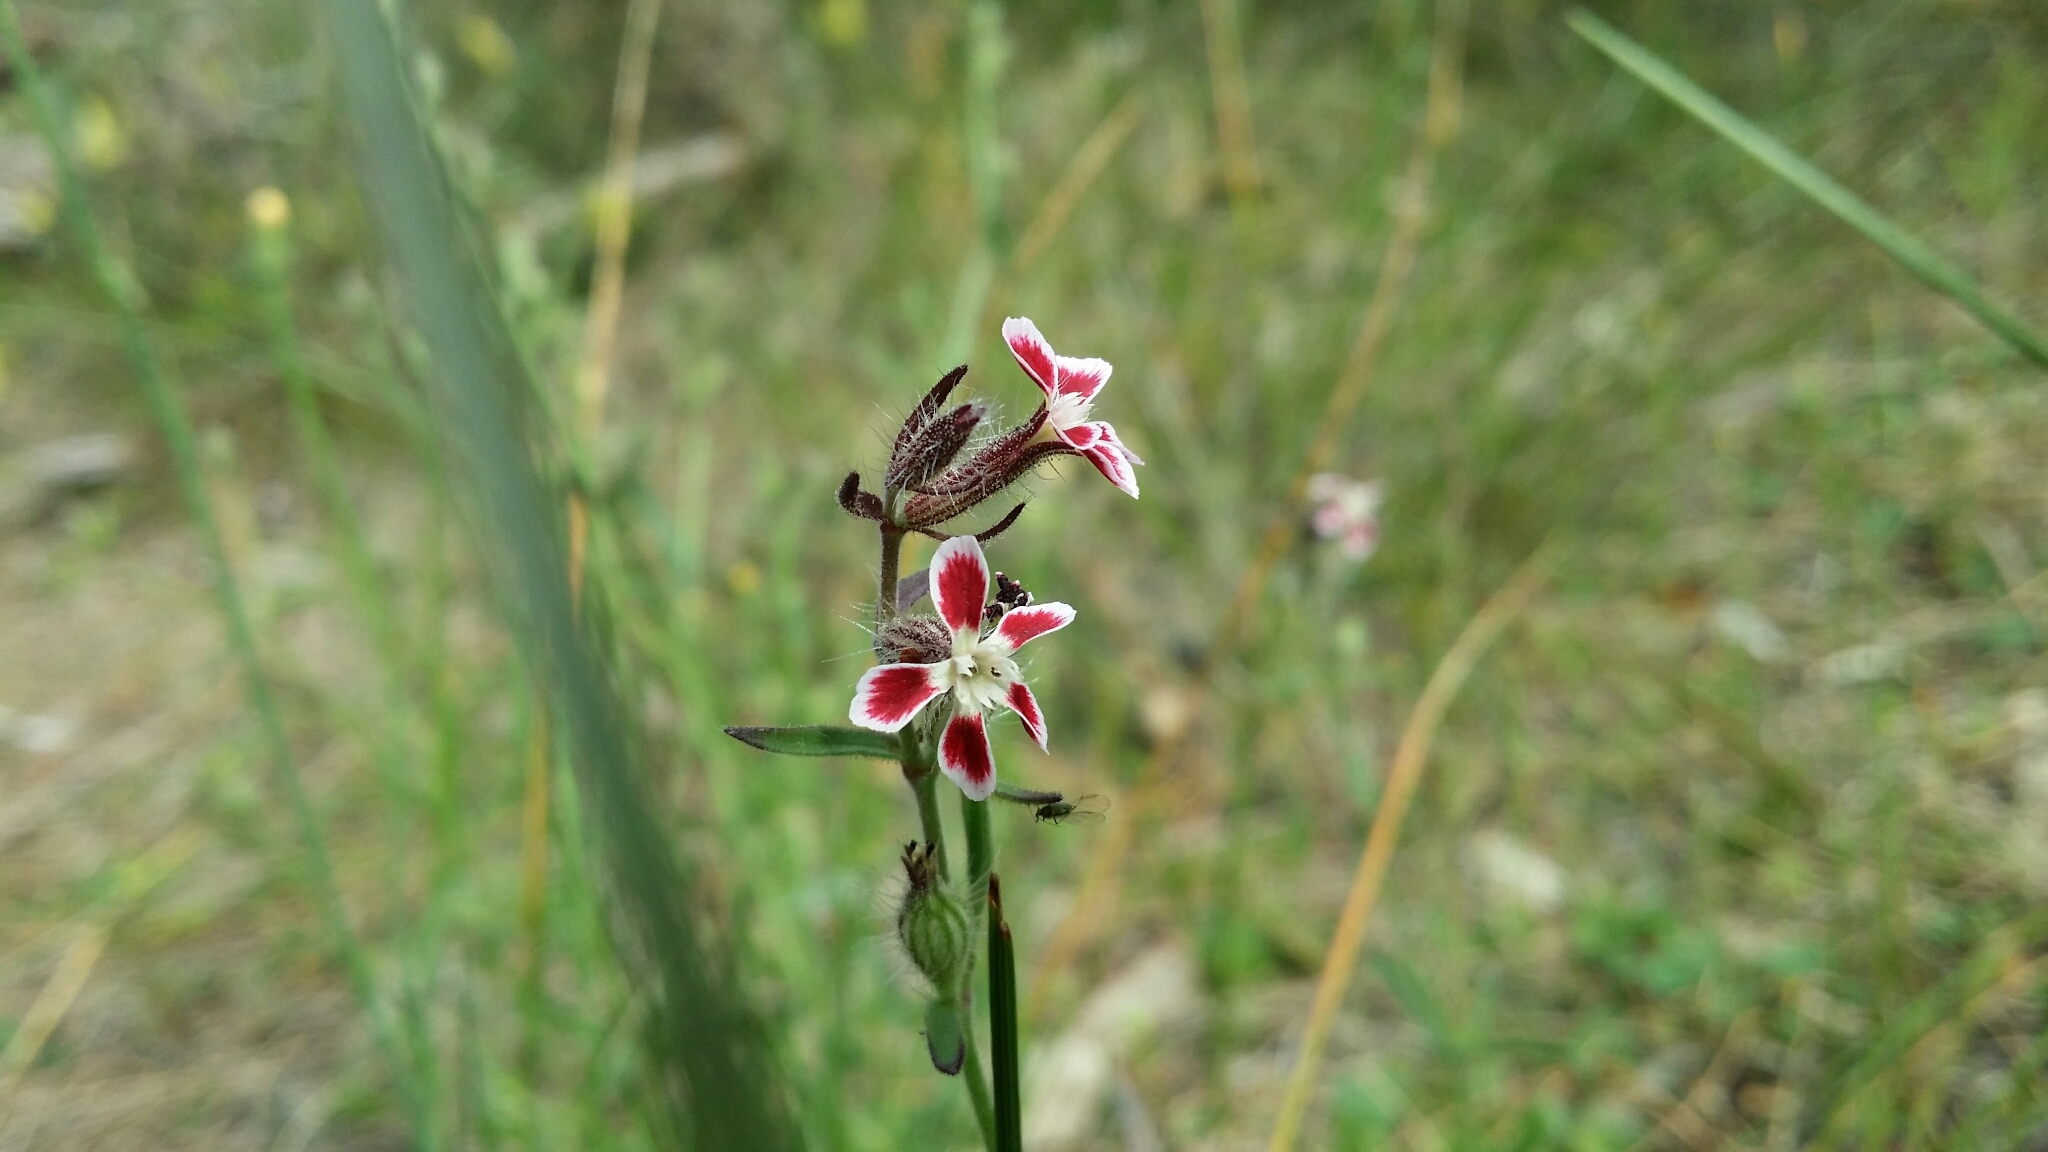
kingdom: Plantae
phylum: Tracheophyta
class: Magnoliopsida
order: Caryophyllales
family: Caryophyllaceae
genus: Silene
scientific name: Silene gallica
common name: Small-flowered catchfly
